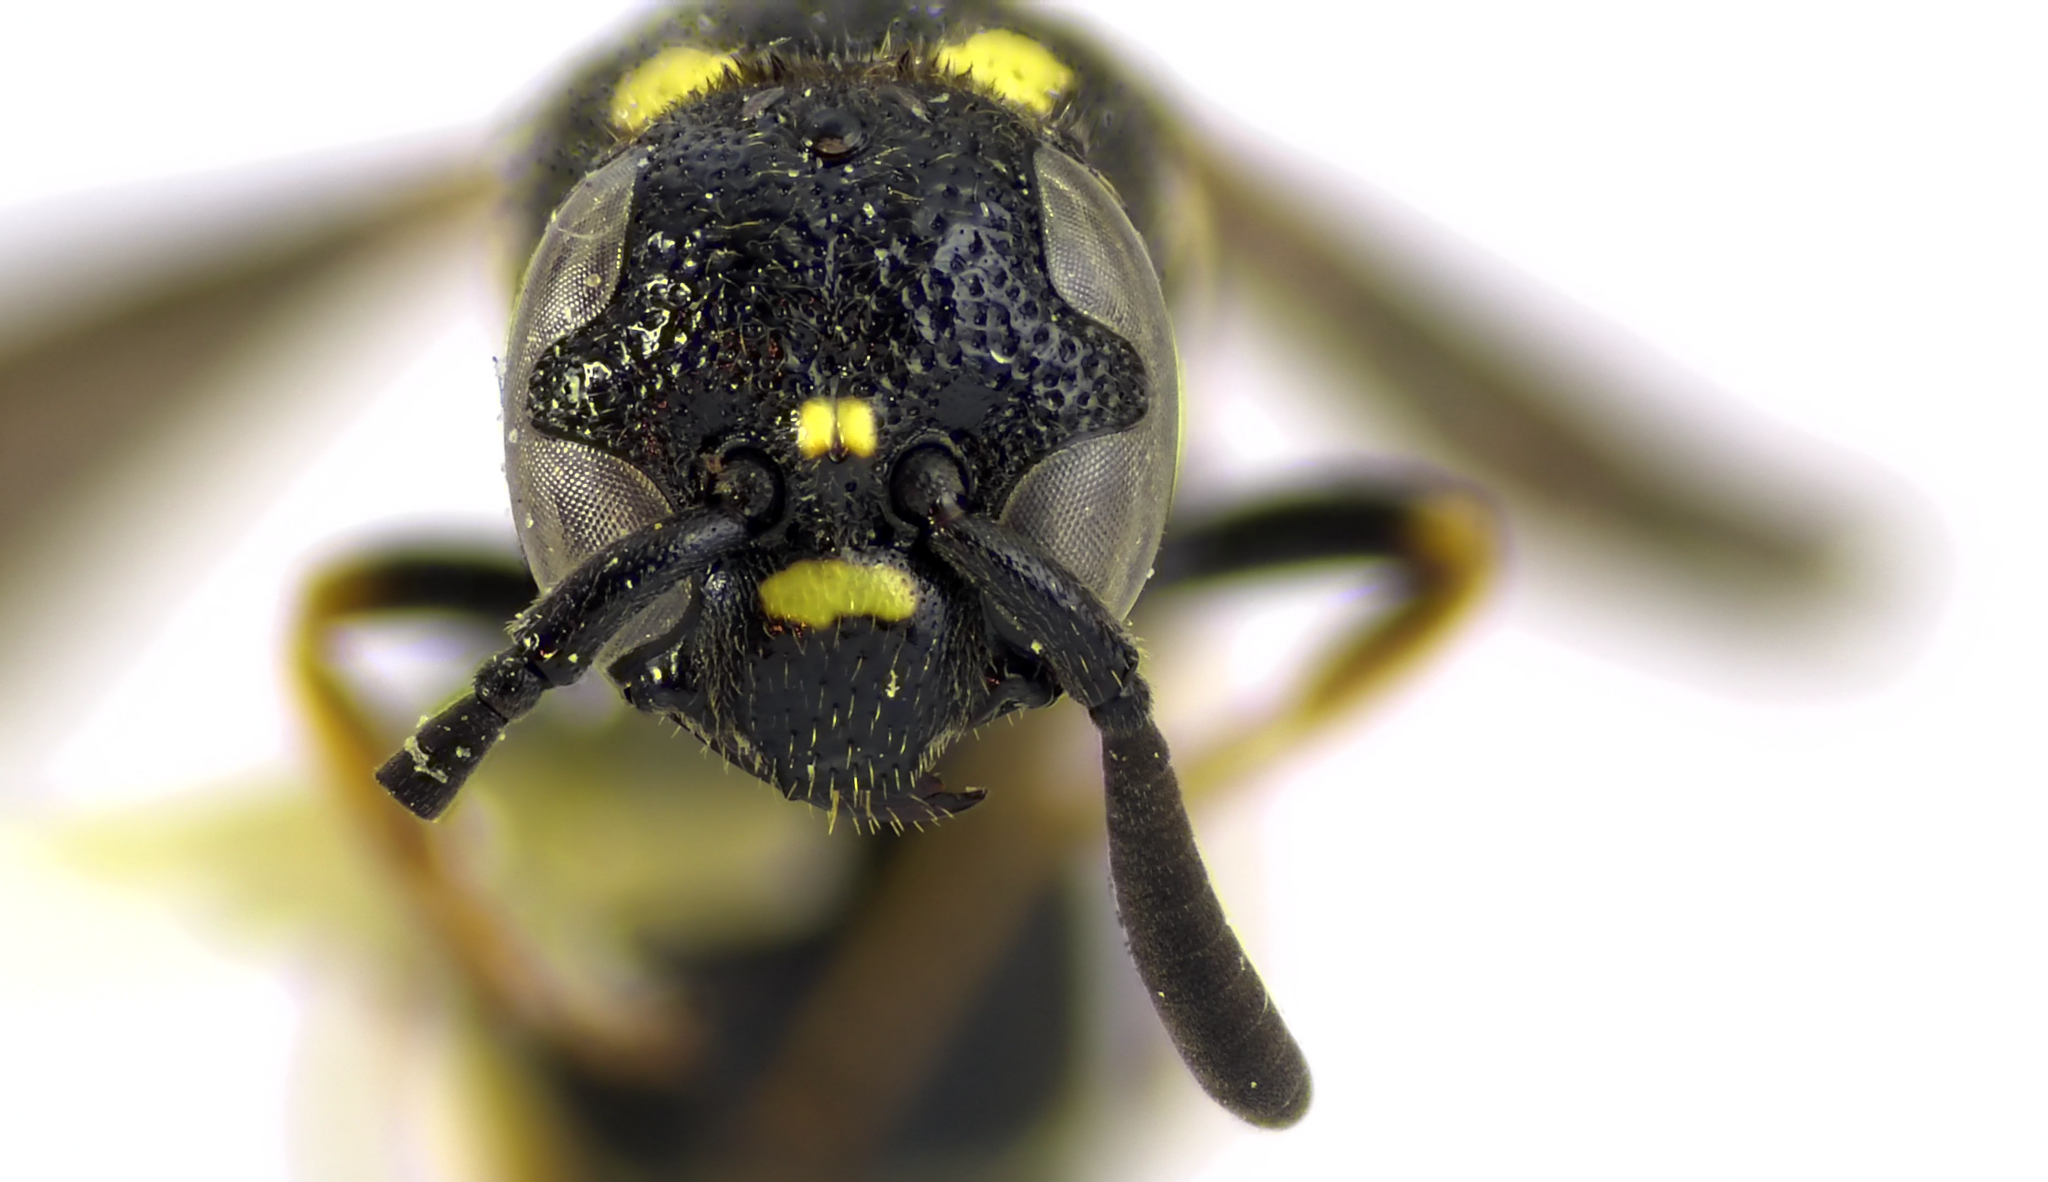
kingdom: Animalia
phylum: Arthropoda
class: Insecta
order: Hymenoptera
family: Eumenidae
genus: Symmorphus
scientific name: Symmorphus canadensis
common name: Canadian potter wasp
